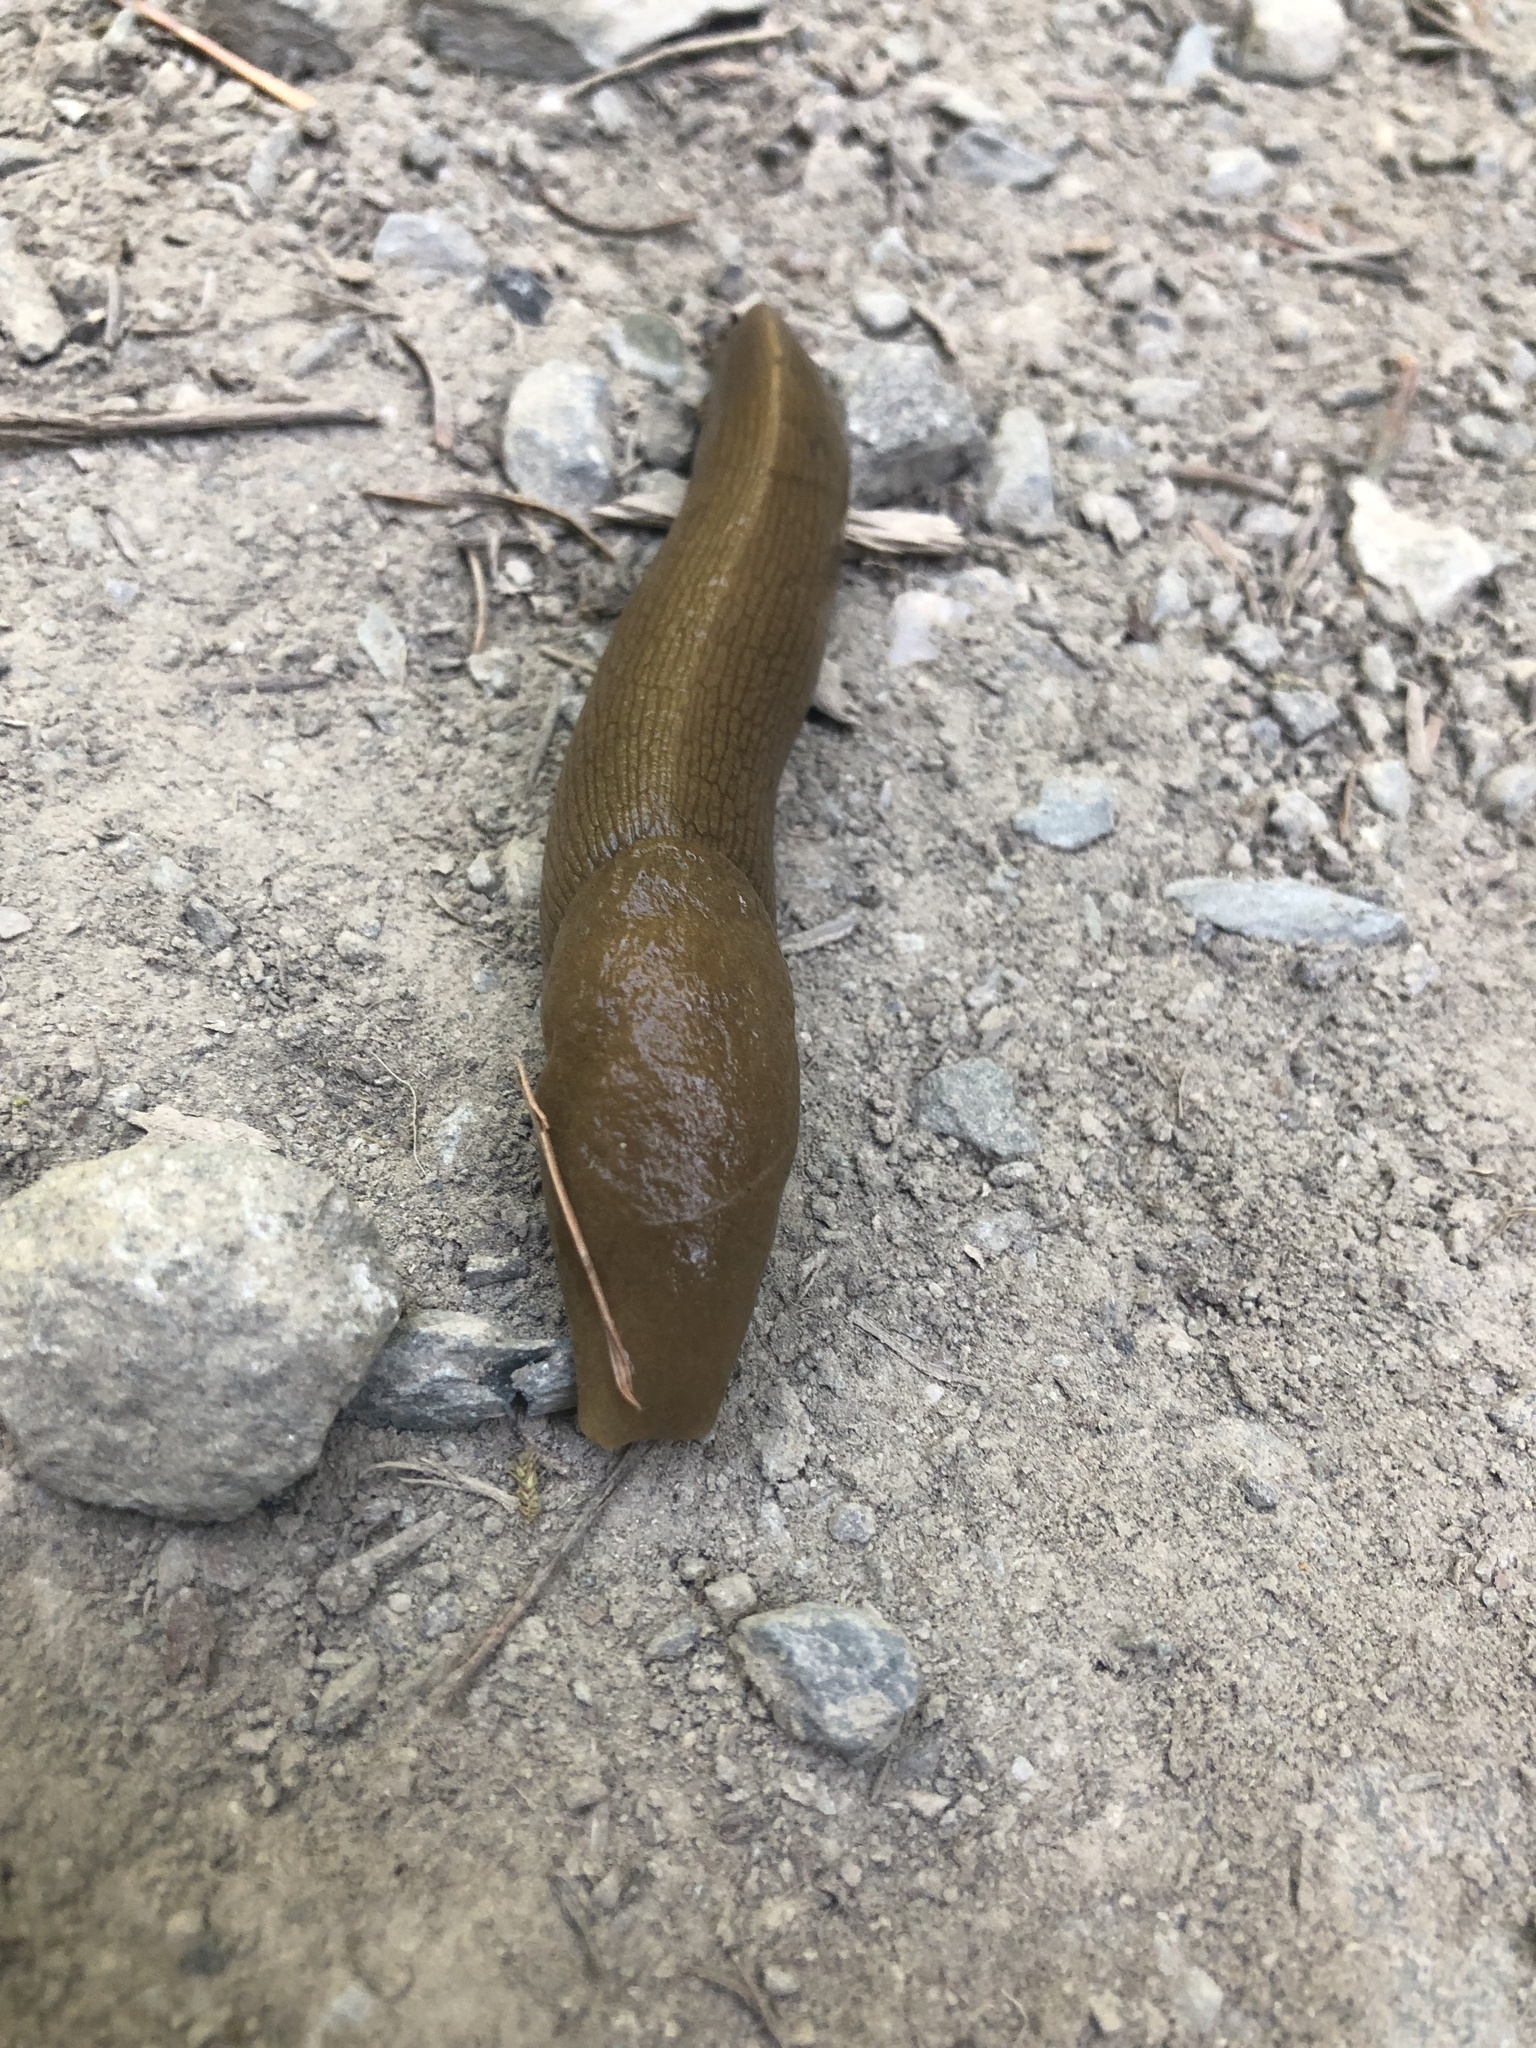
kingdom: Animalia
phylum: Mollusca
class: Gastropoda
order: Stylommatophora
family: Ariolimacidae
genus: Ariolimax
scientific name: Ariolimax columbianus
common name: Pacific banana slug
